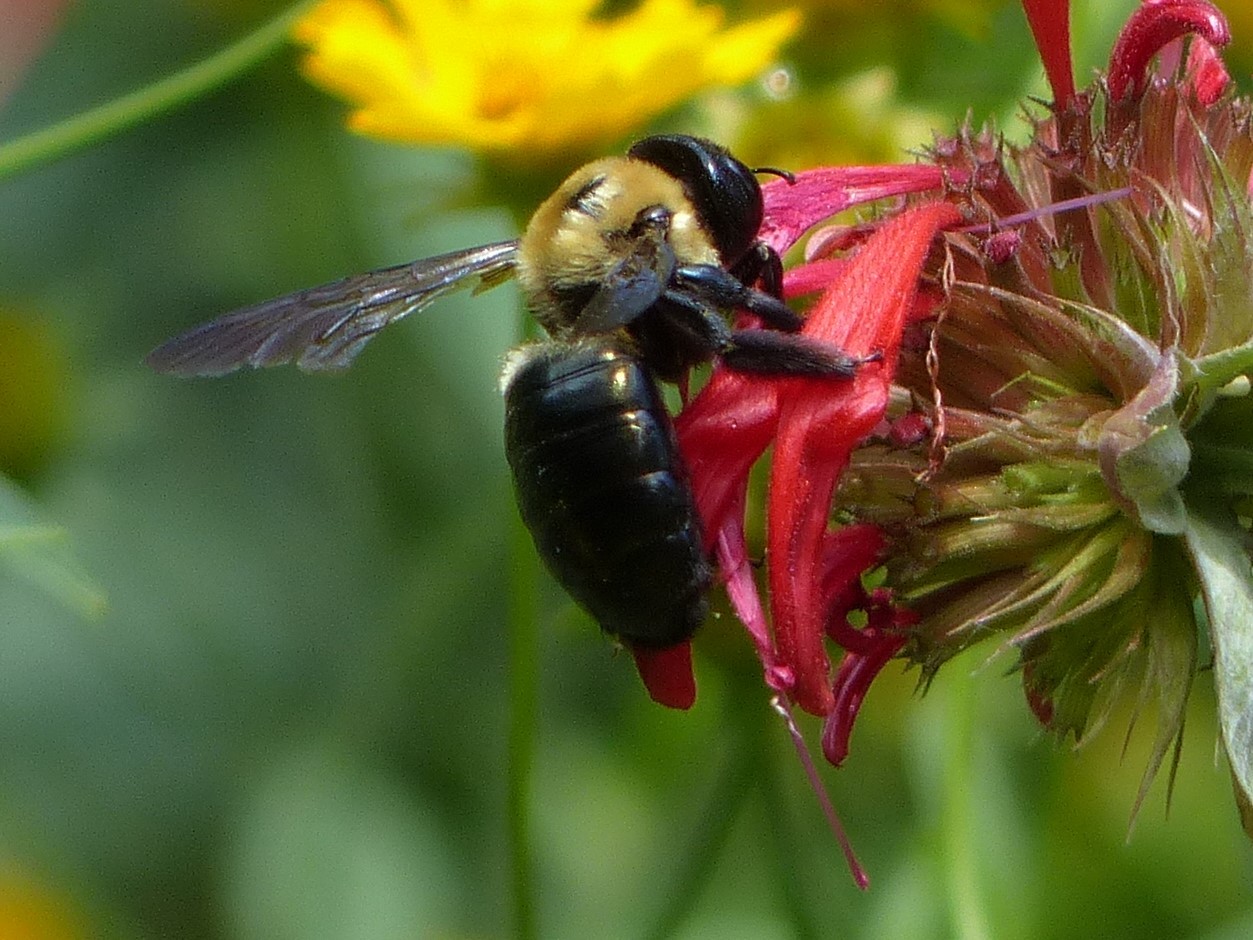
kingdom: Animalia
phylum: Arthropoda
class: Insecta
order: Hymenoptera
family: Apidae
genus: Xylocopa
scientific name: Xylocopa virginica
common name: Carpenter bee
